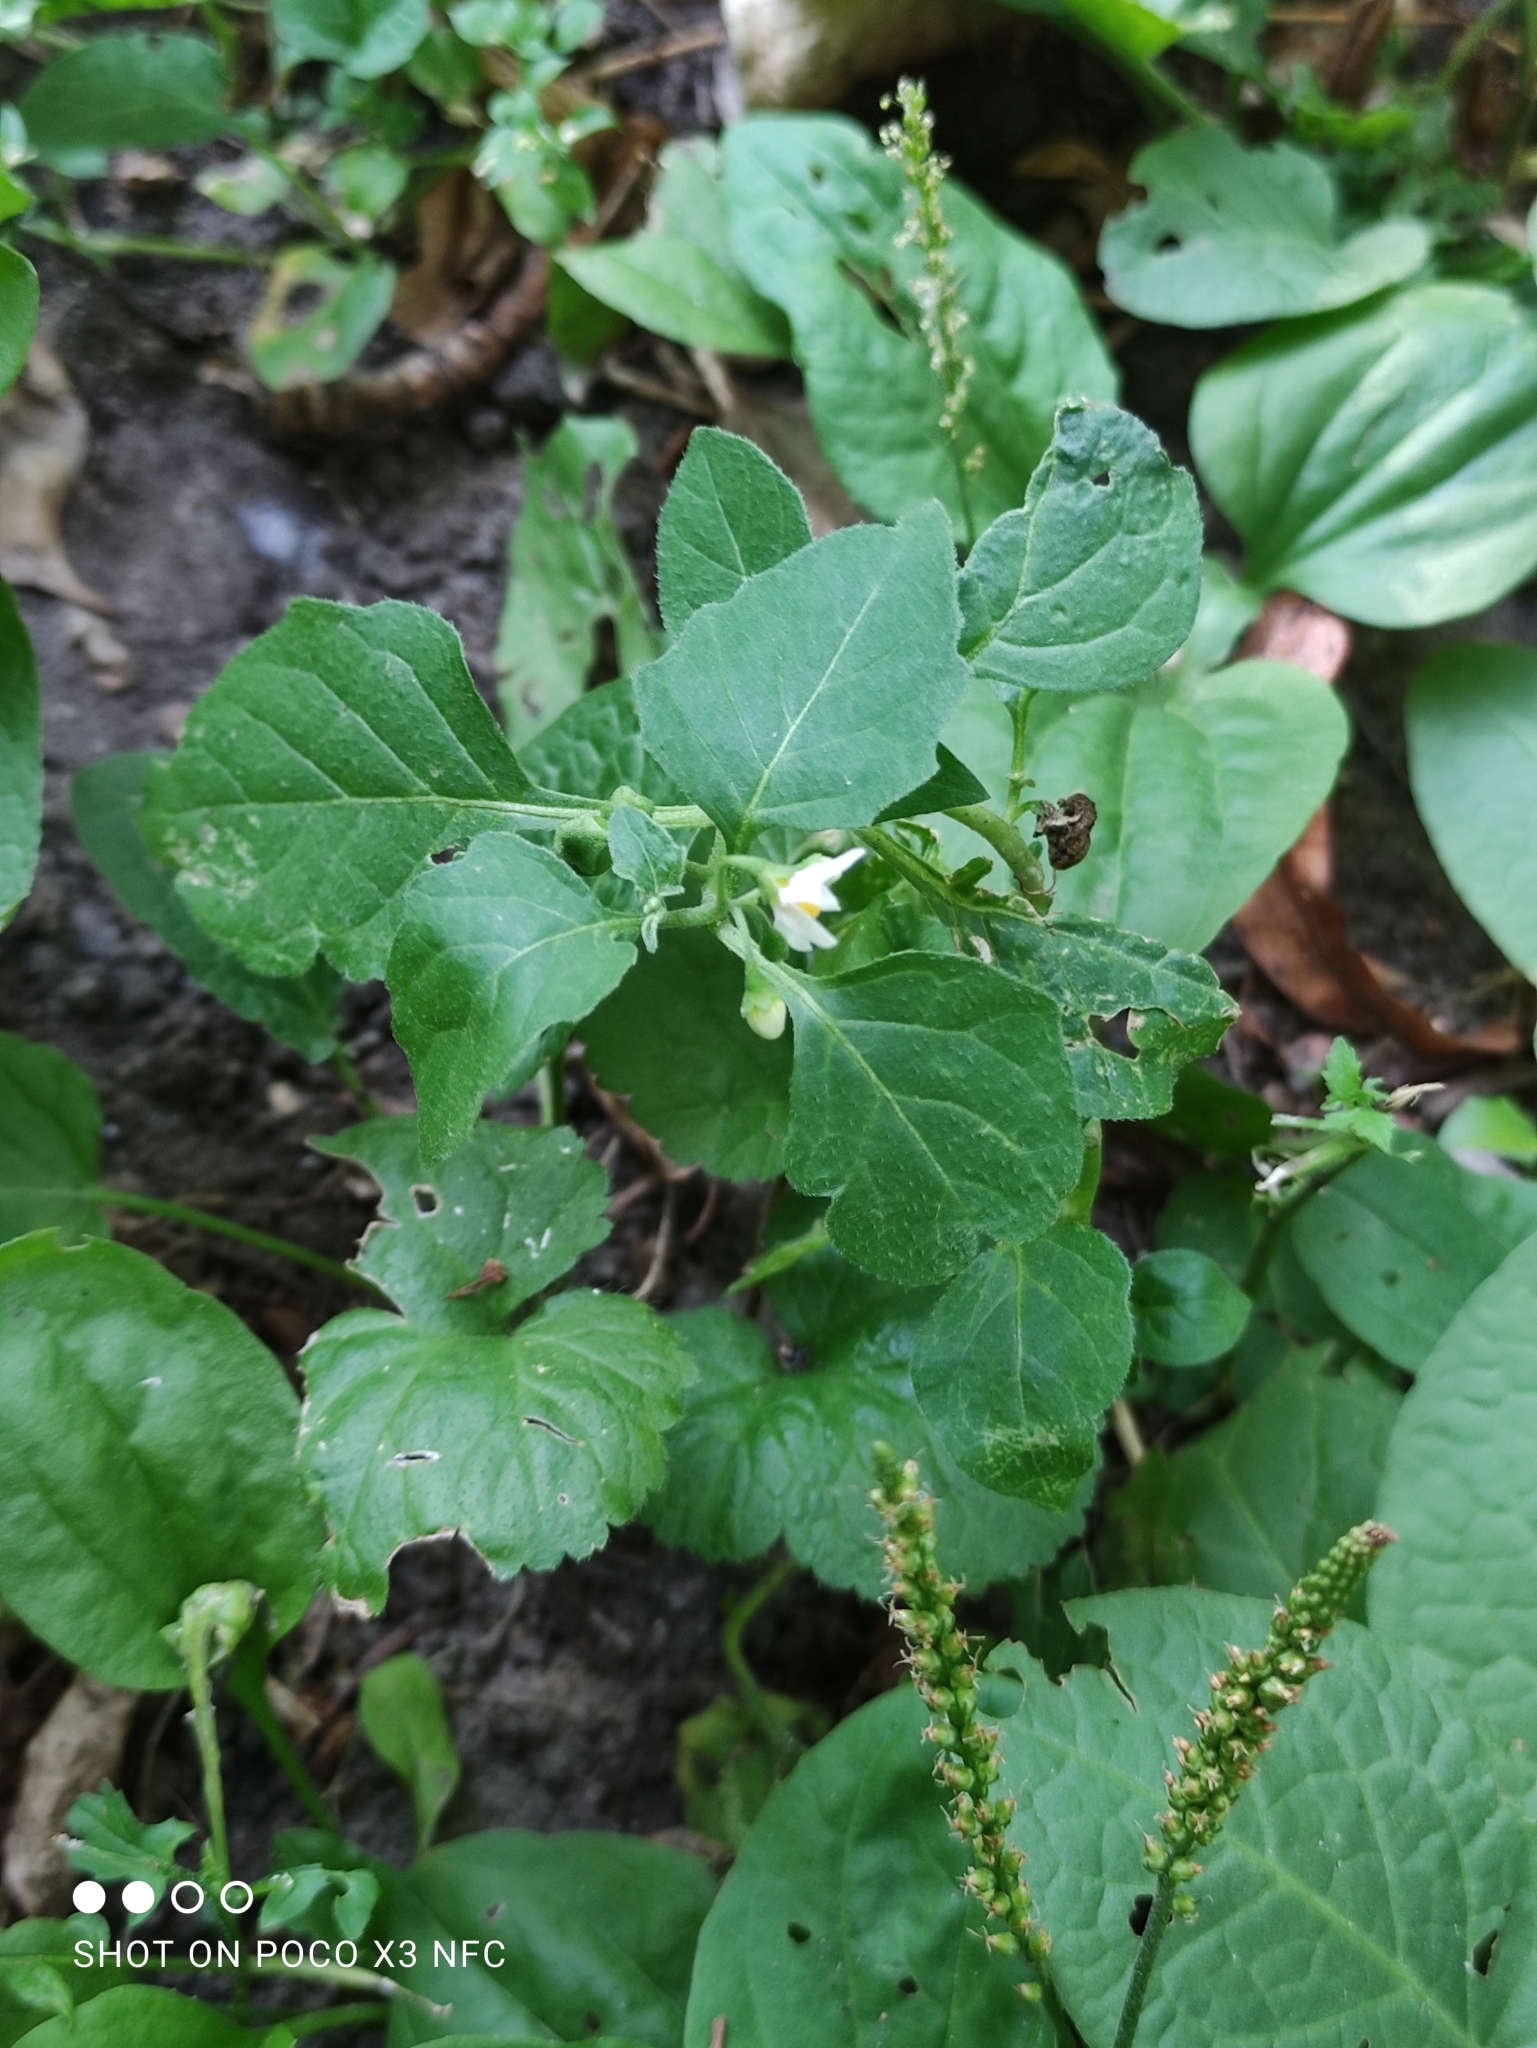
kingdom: Plantae
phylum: Tracheophyta
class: Magnoliopsida
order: Solanales
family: Solanaceae
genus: Solanum
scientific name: Solanum nigrum
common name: Black nightshade
